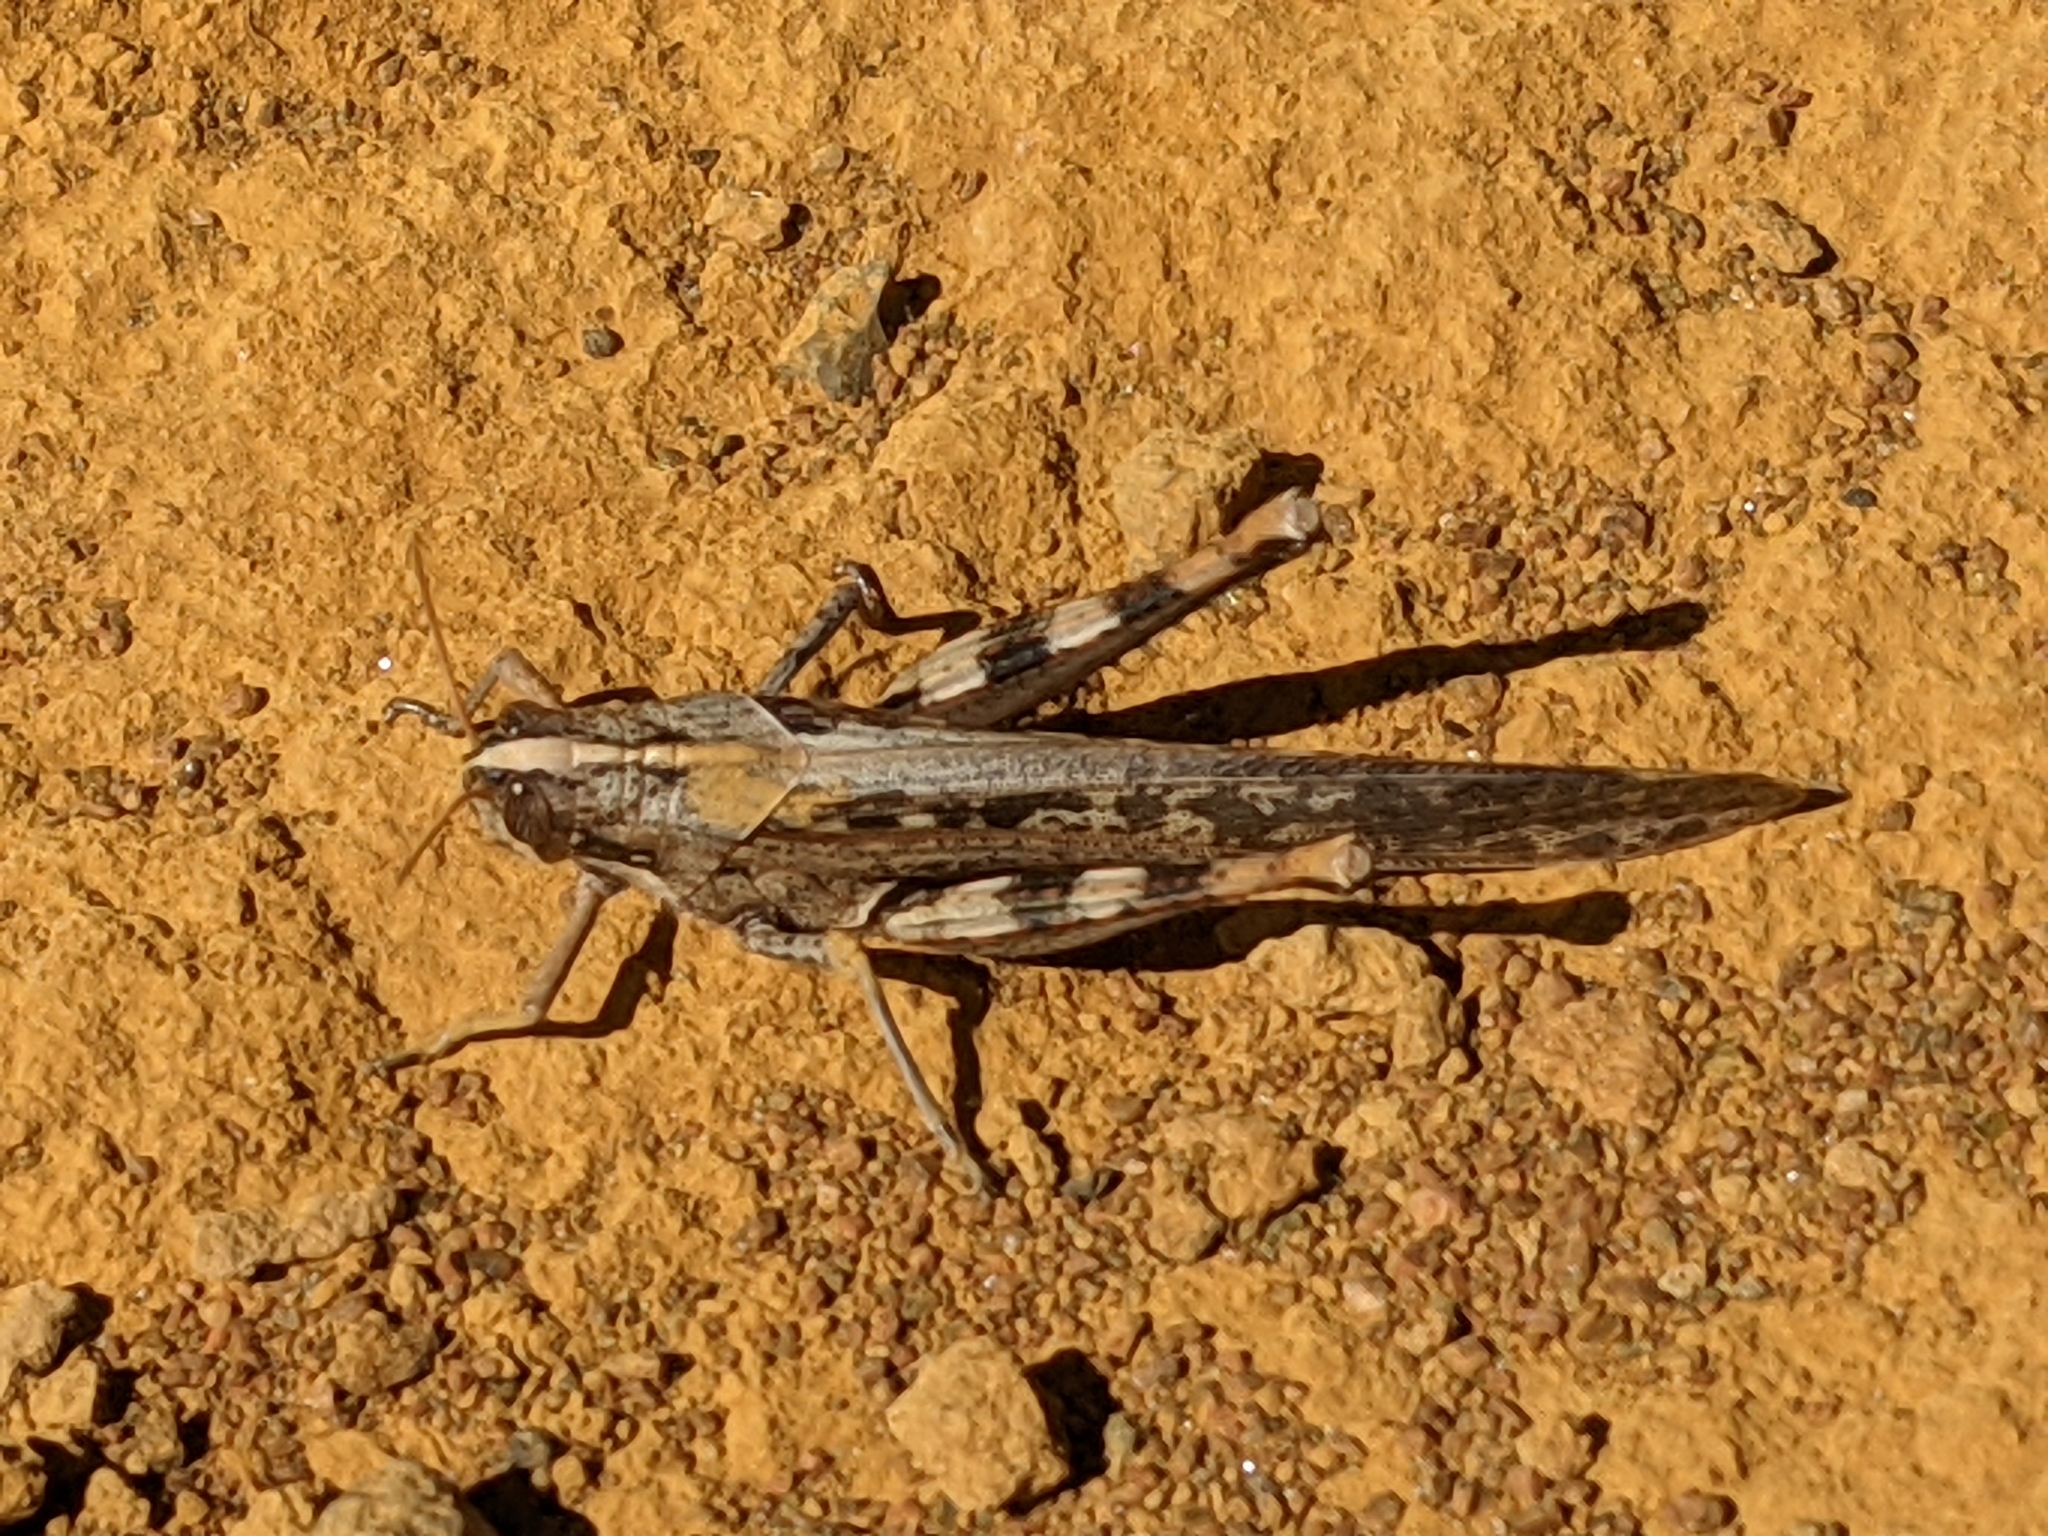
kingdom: Animalia
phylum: Arthropoda
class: Insecta
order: Orthoptera
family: Acrididae
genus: Schistocerca
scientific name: Schistocerca nitens
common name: Vagrant grasshopper
